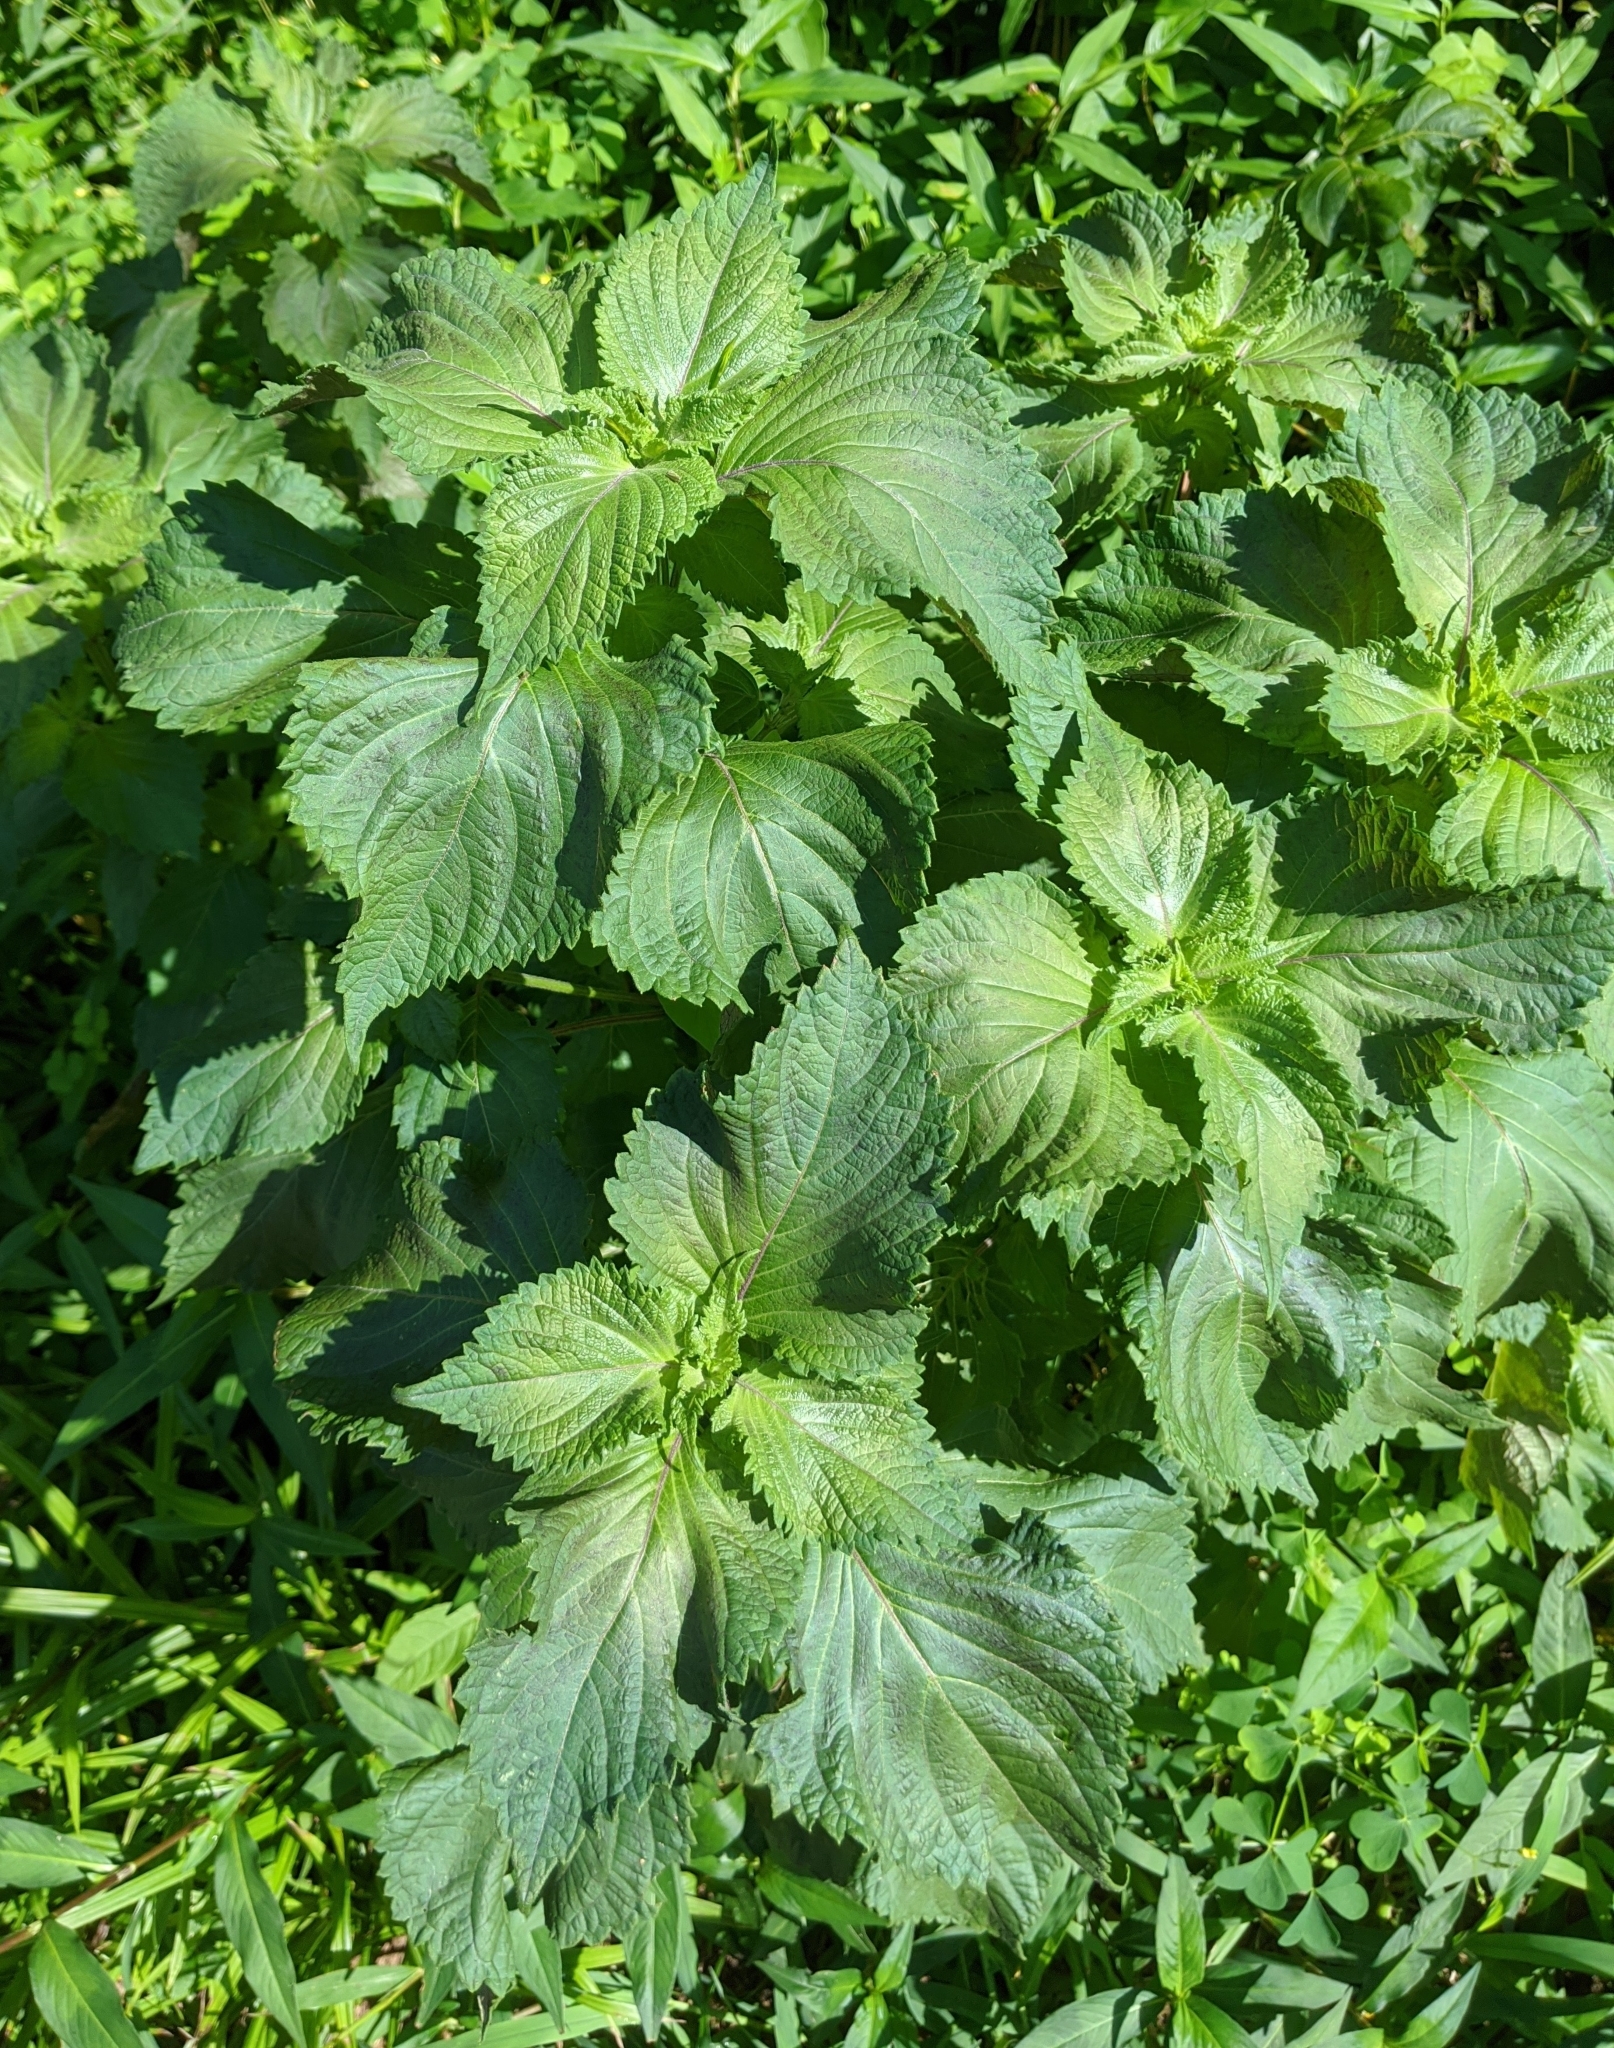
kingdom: Plantae
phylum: Tracheophyta
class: Magnoliopsida
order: Lamiales
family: Lamiaceae
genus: Perilla
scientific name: Perilla frutescens
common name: Perilla
